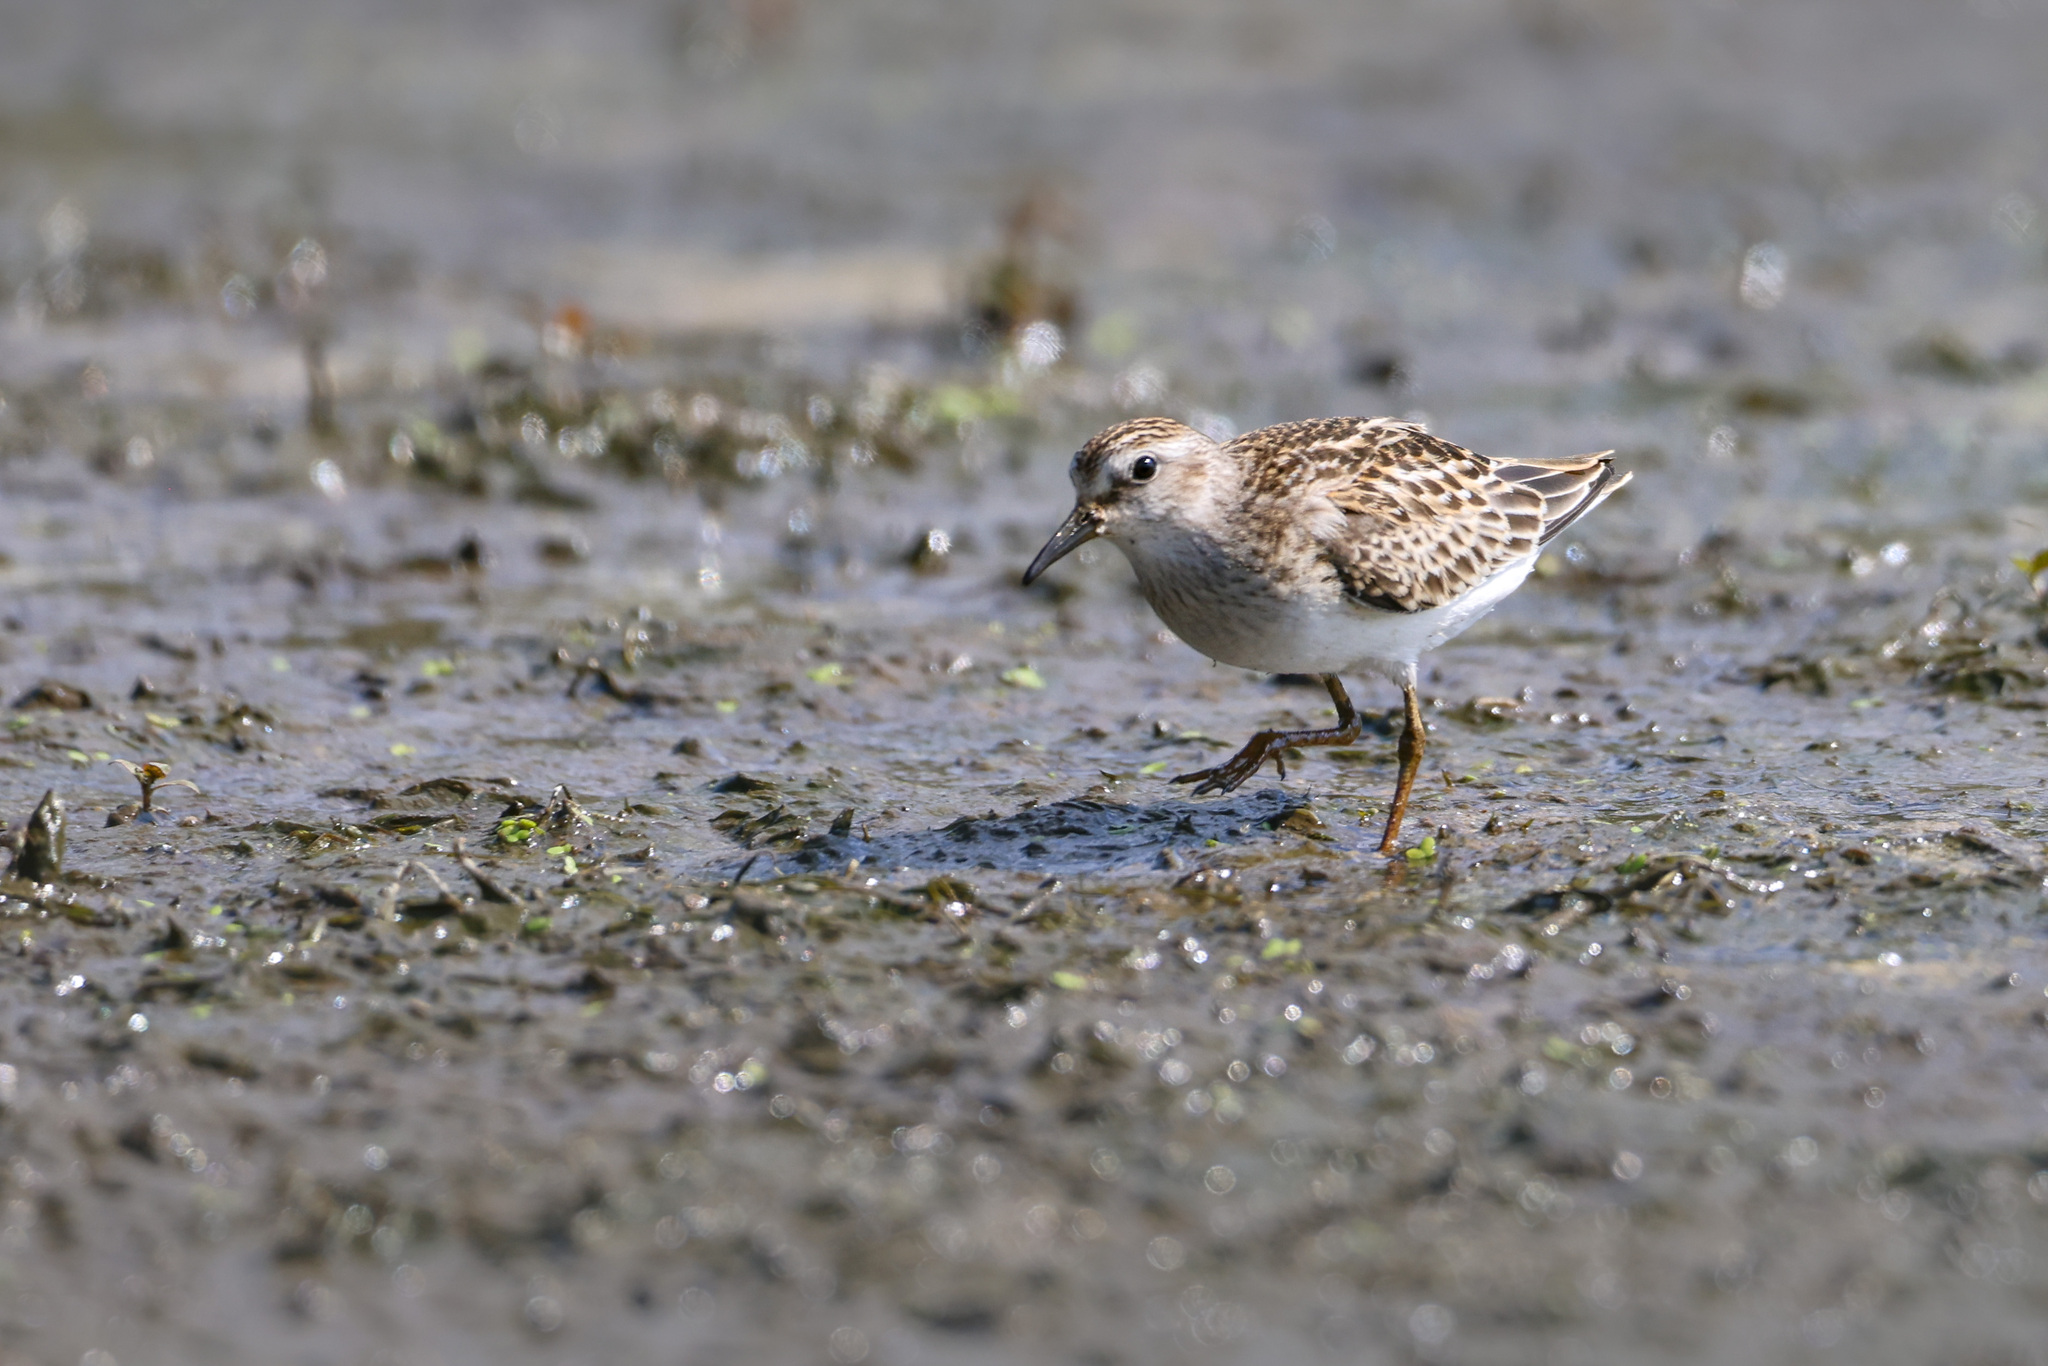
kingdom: Animalia
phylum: Chordata
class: Aves
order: Charadriiformes
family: Scolopacidae
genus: Calidris
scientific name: Calidris minutilla
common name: Least sandpiper
